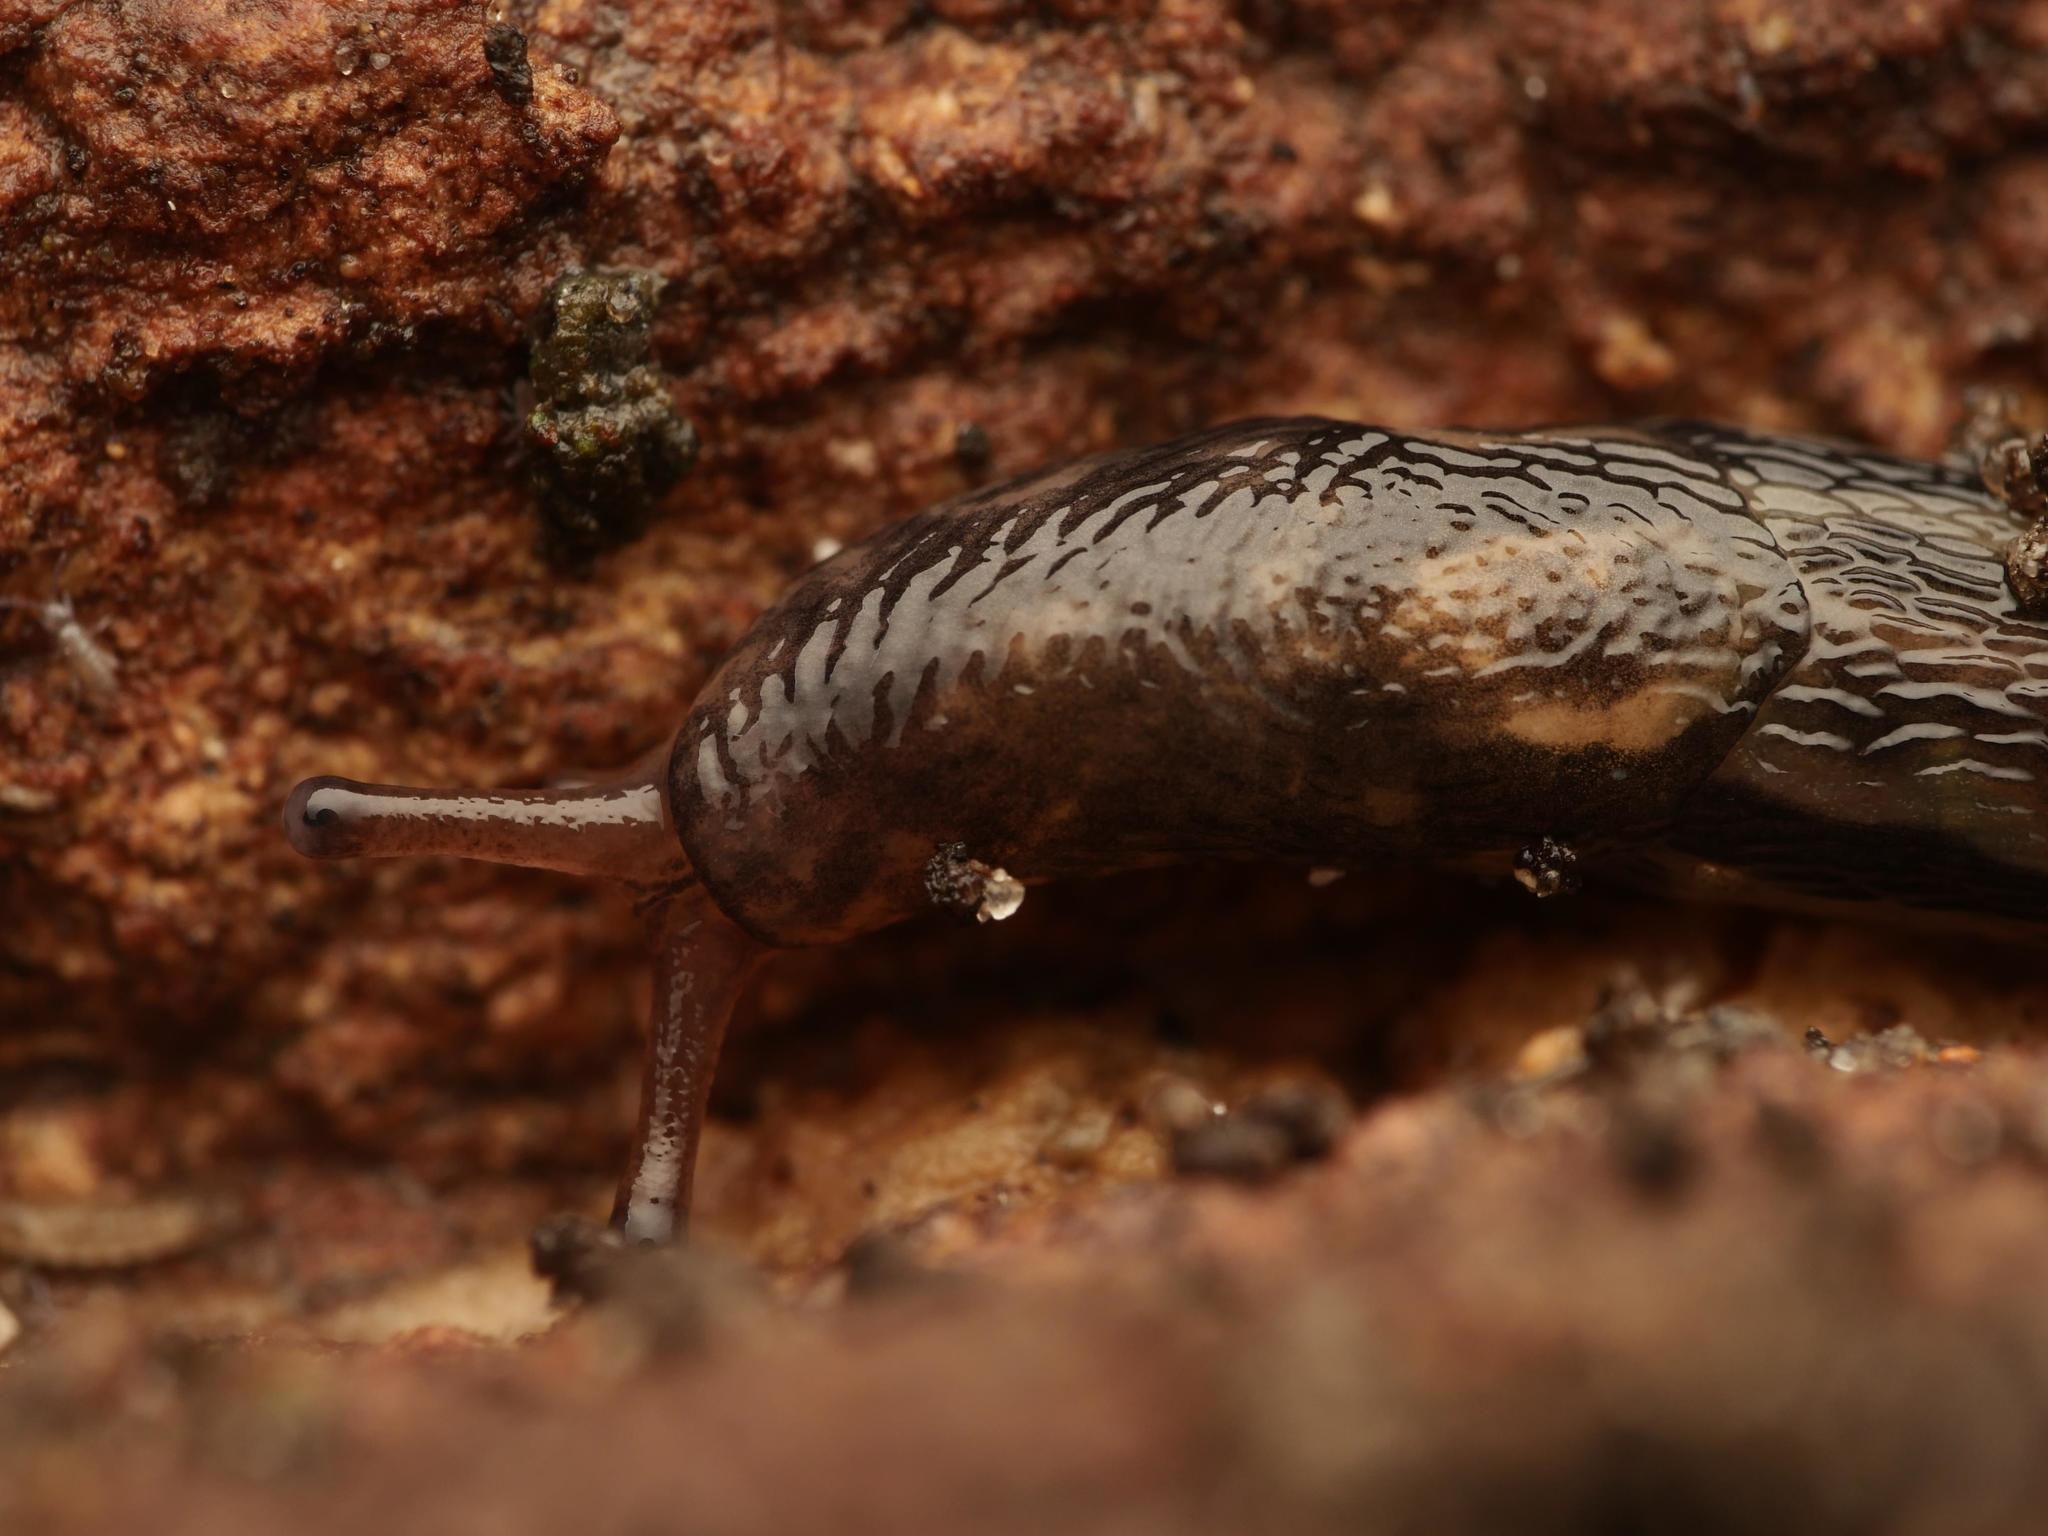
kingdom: Animalia
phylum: Mollusca
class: Gastropoda
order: Stylommatophora
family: Limacidae
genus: Limax
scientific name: Limax maximus
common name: Great grey slug
